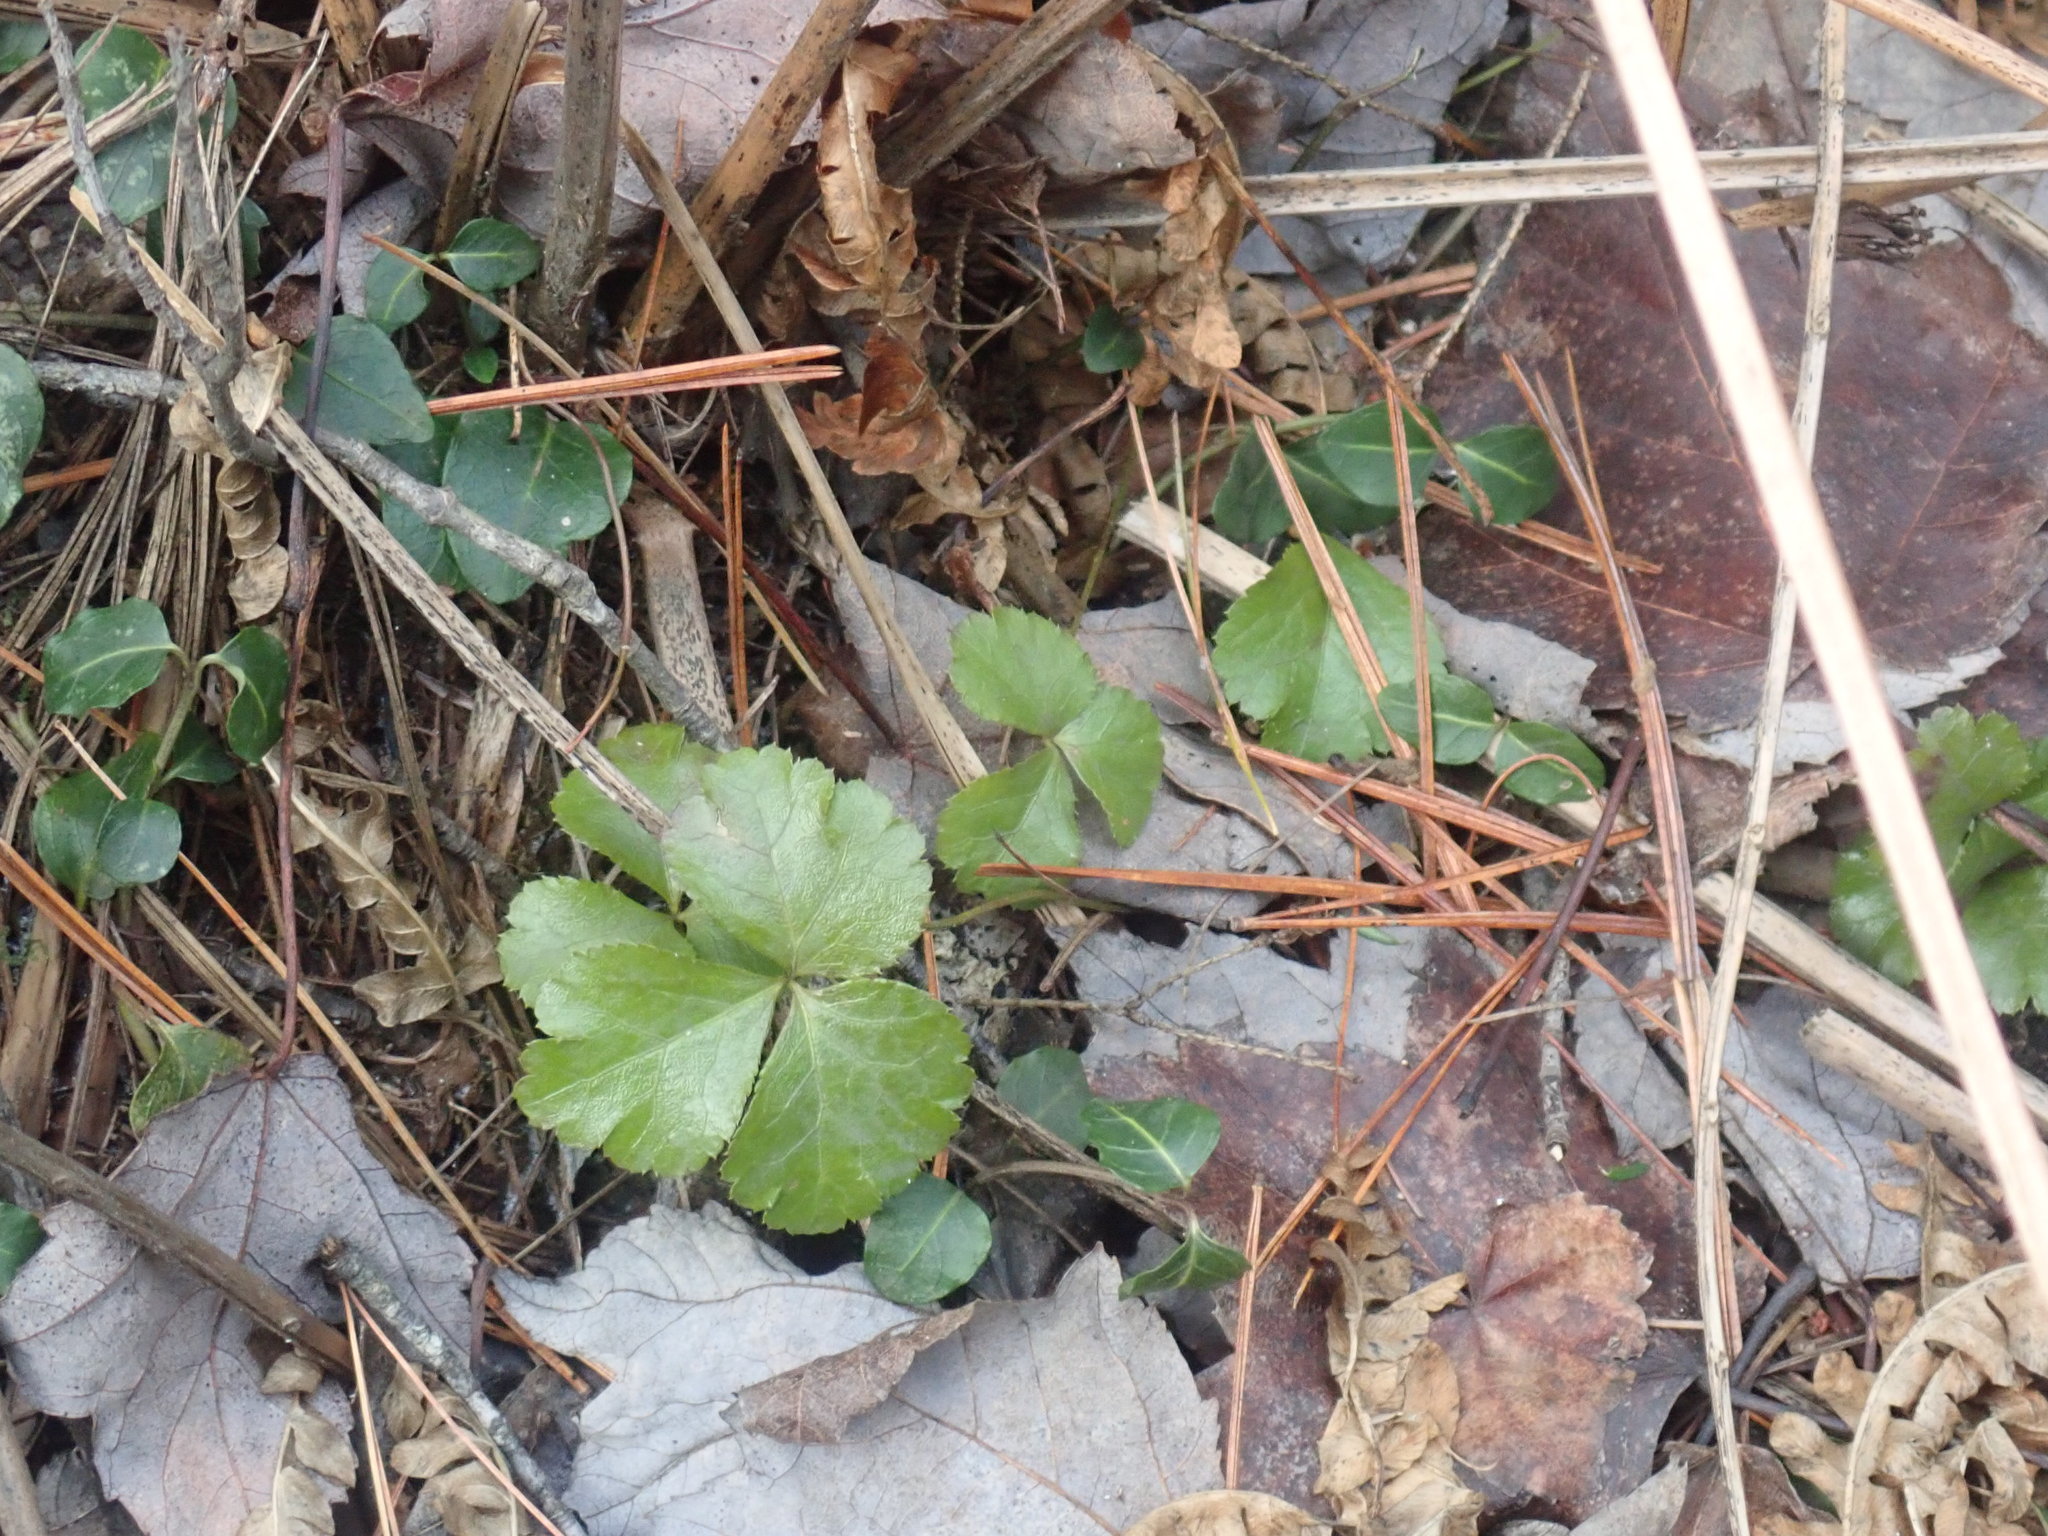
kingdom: Plantae
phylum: Tracheophyta
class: Magnoliopsida
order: Ranunculales
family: Ranunculaceae
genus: Coptis
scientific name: Coptis trifolia
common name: Canker-root
